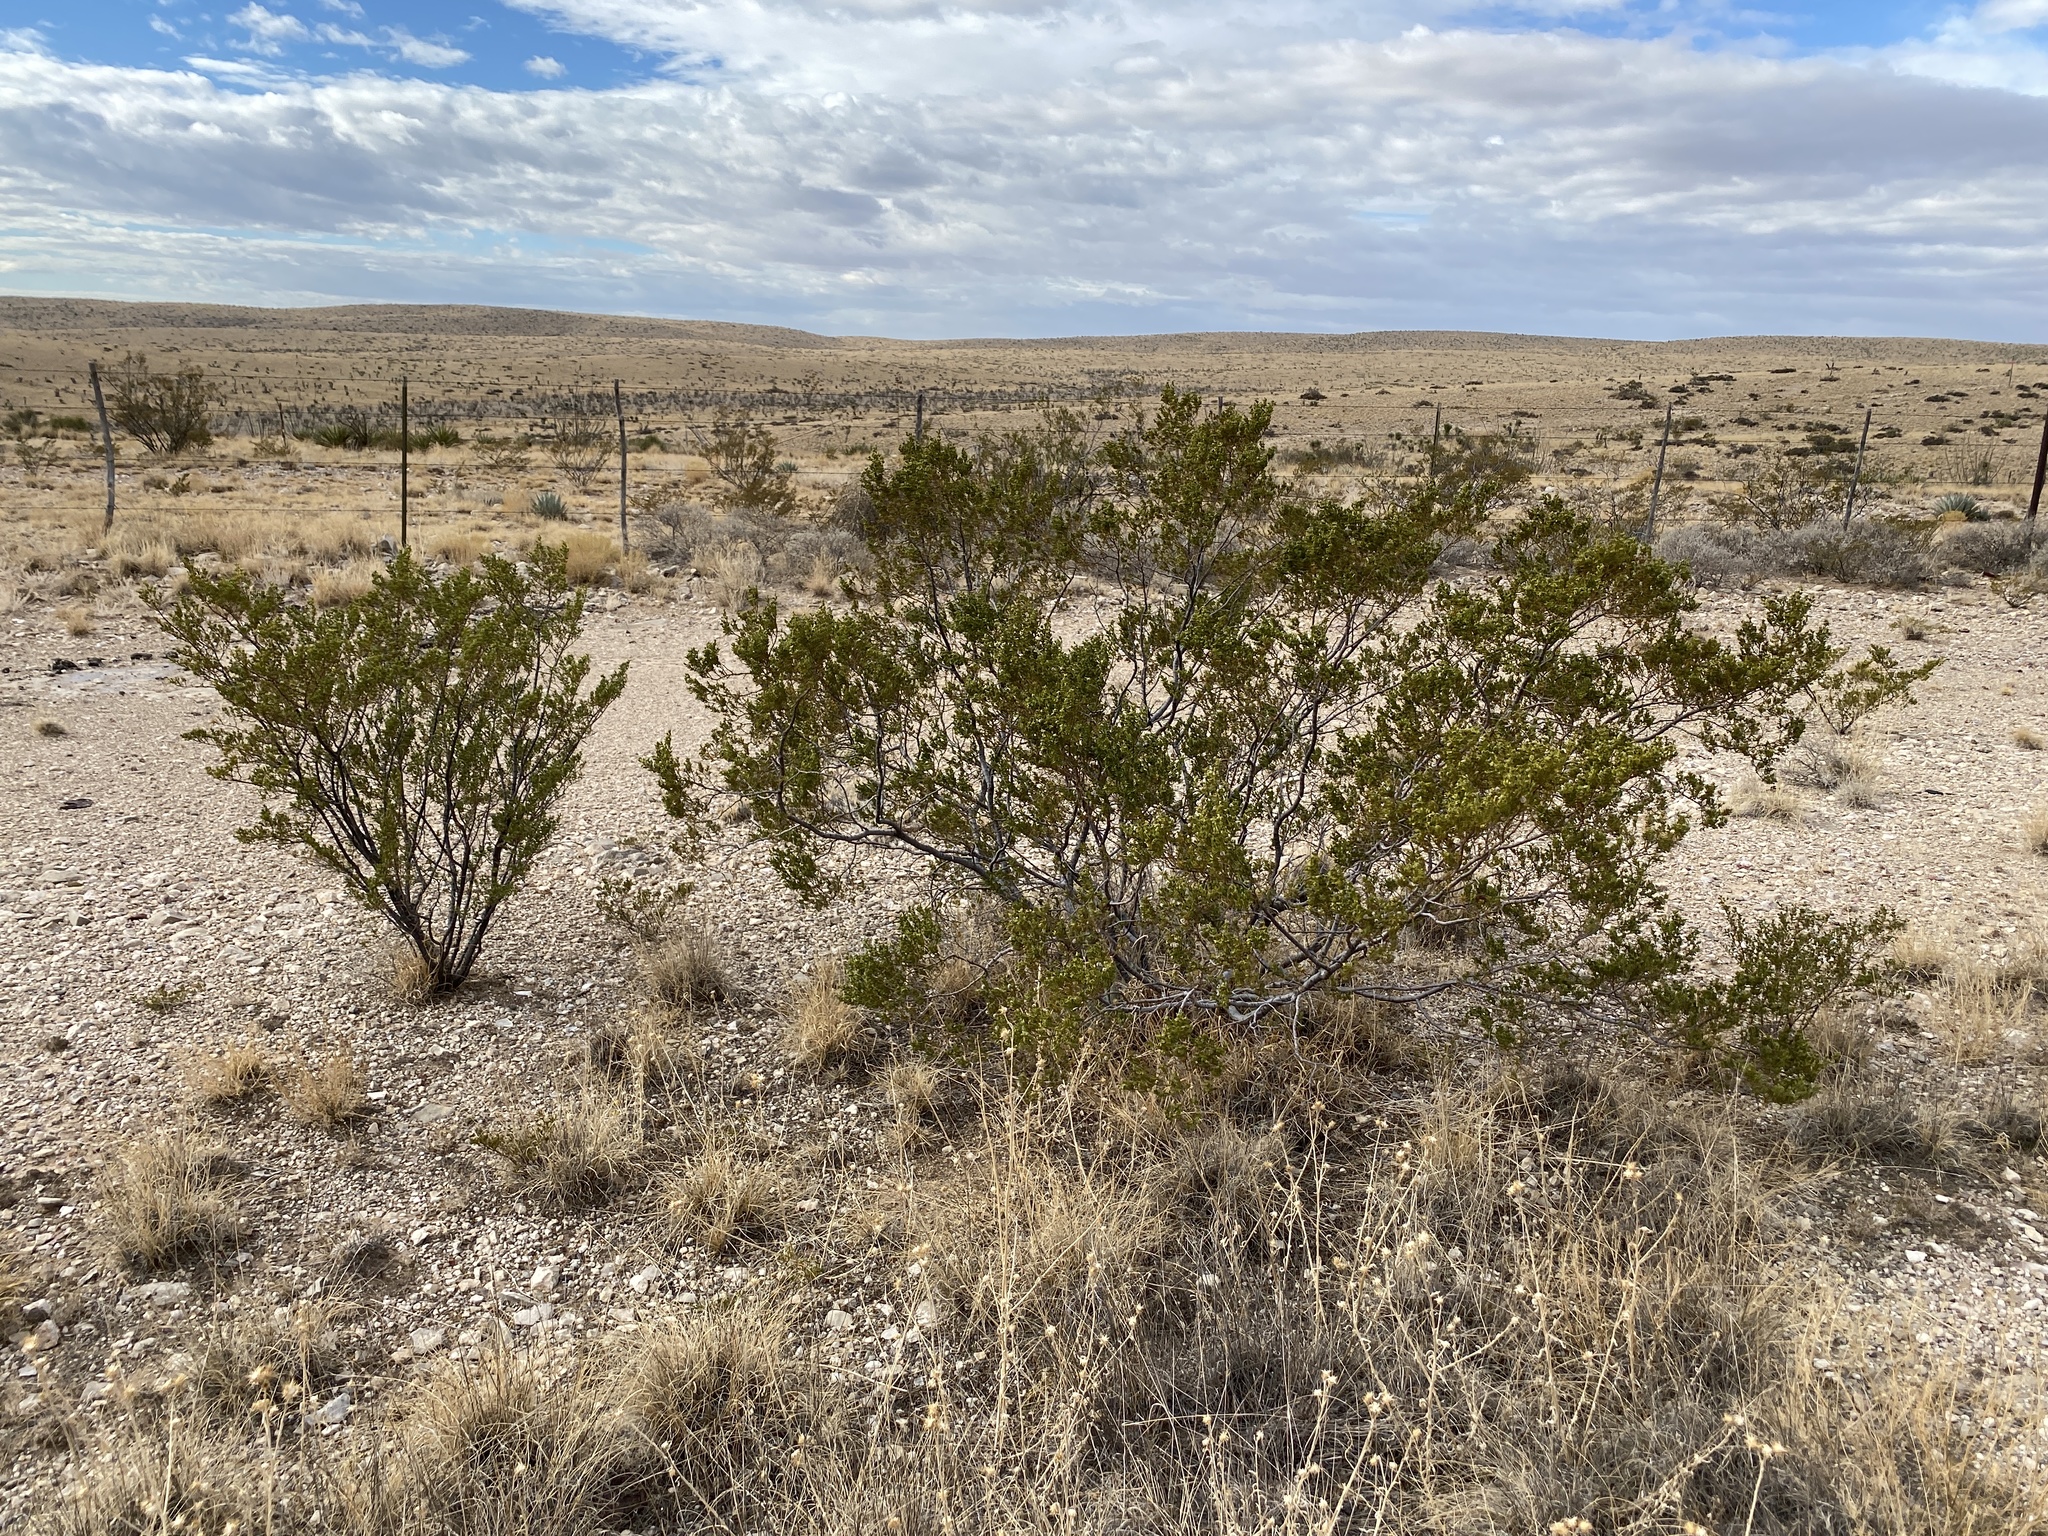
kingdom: Plantae
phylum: Tracheophyta
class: Magnoliopsida
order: Zygophyllales
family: Zygophyllaceae
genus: Larrea
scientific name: Larrea tridentata
